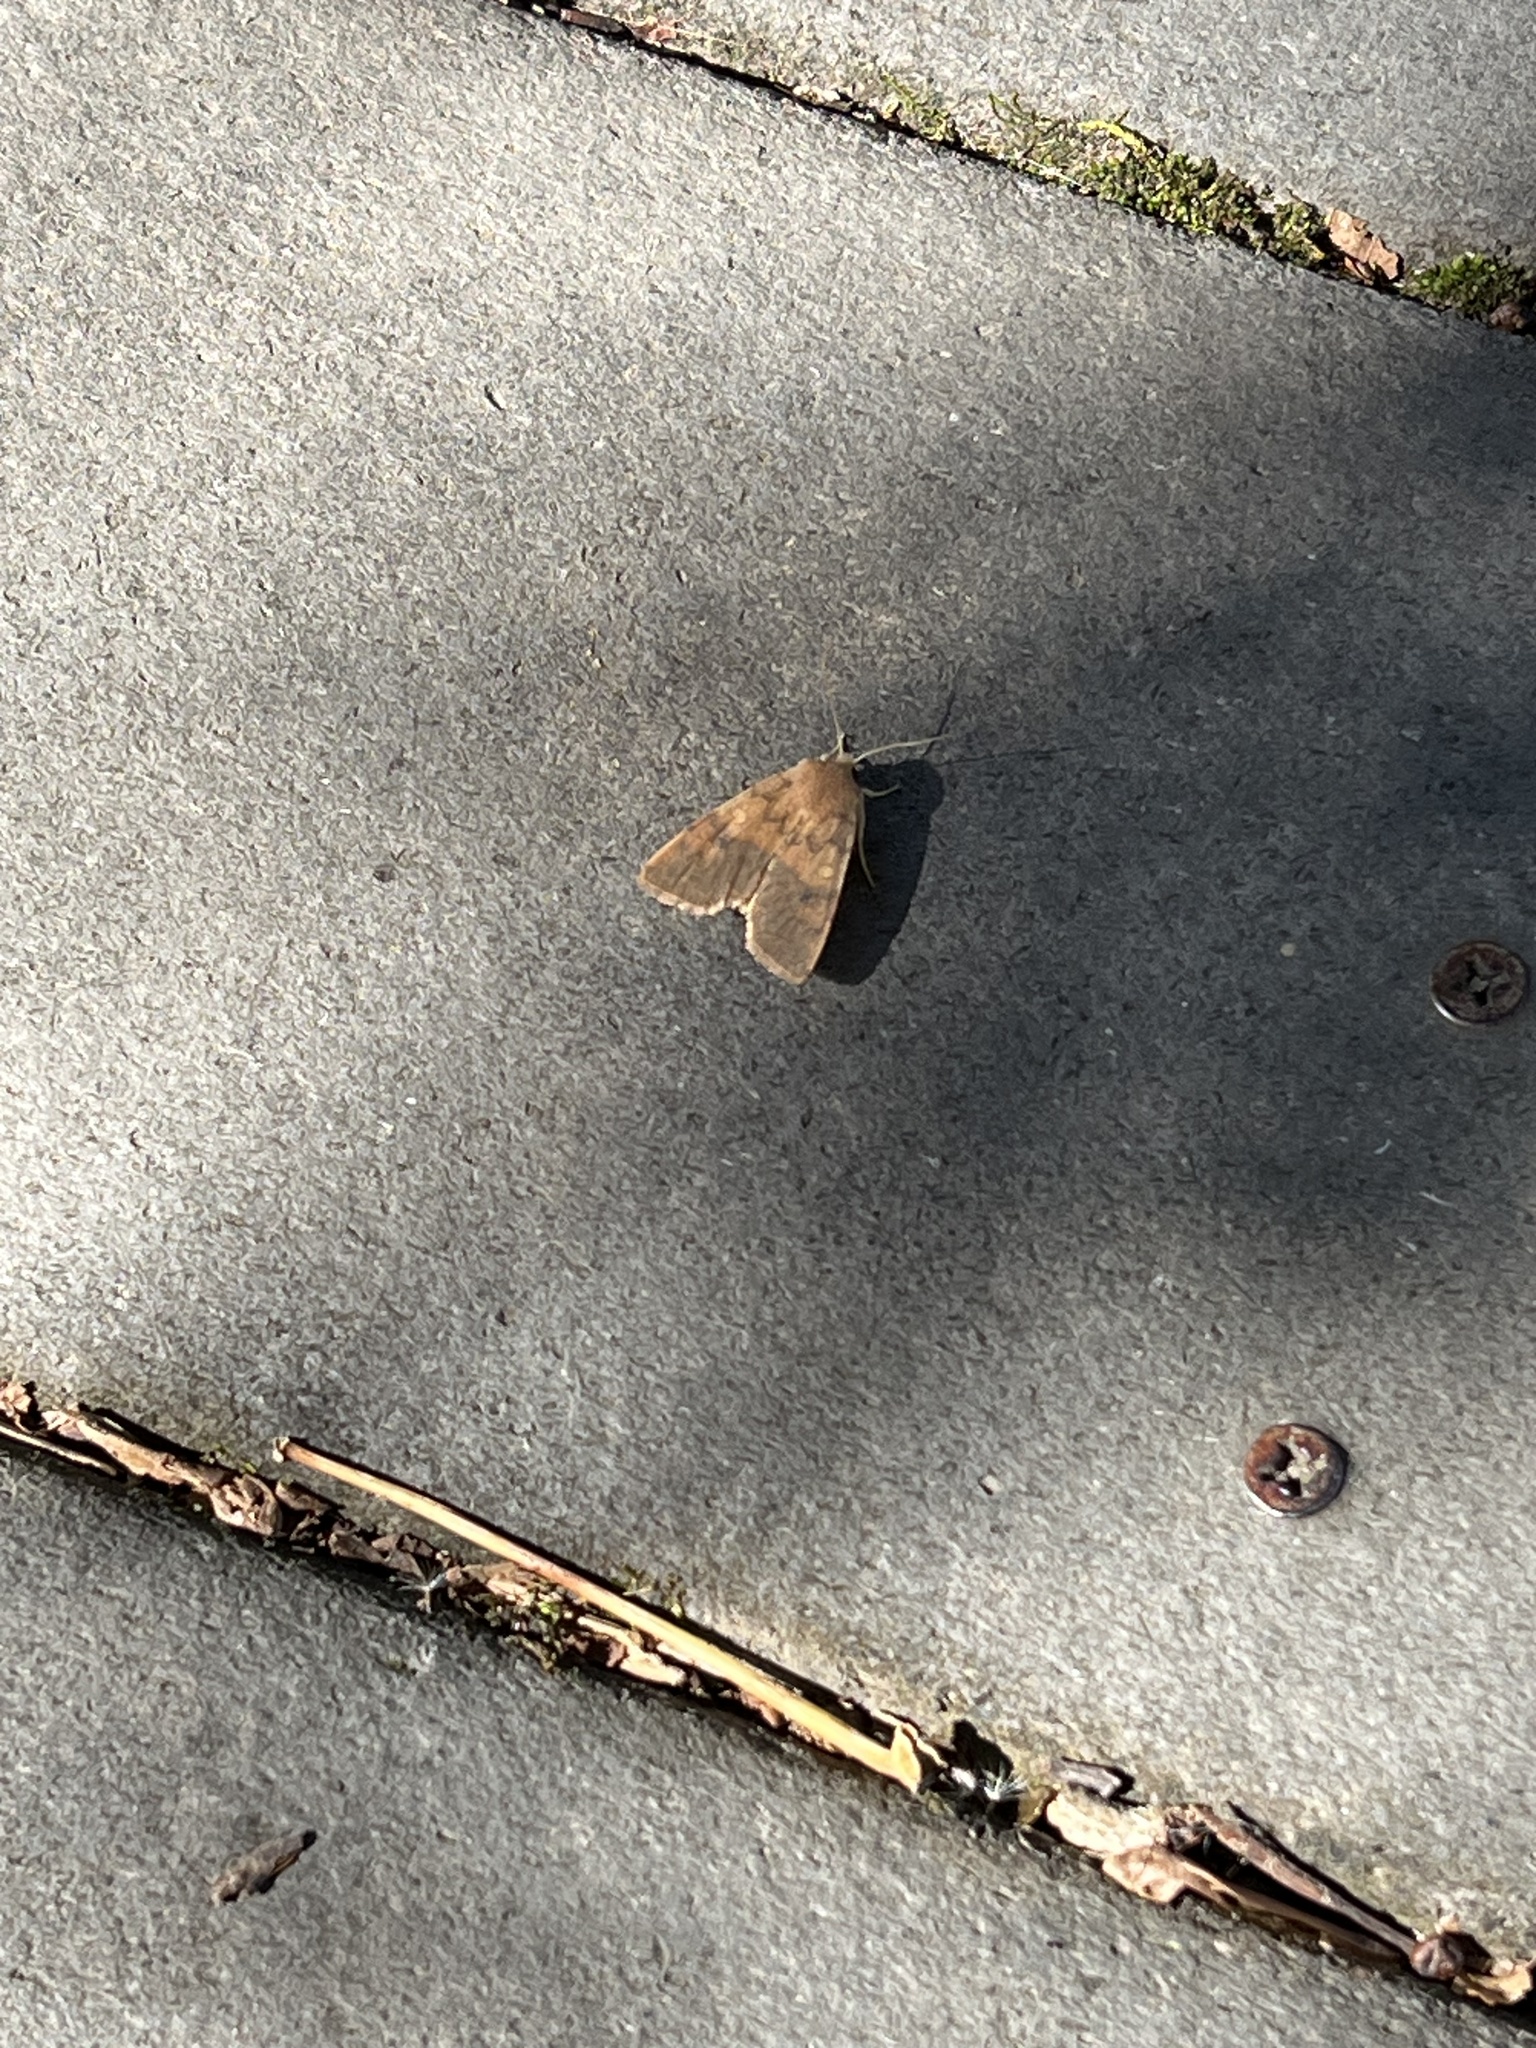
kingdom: Animalia
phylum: Arthropoda
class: Insecta
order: Lepidoptera
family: Noctuidae
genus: Agrochola
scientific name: Agrochola bicolorago
